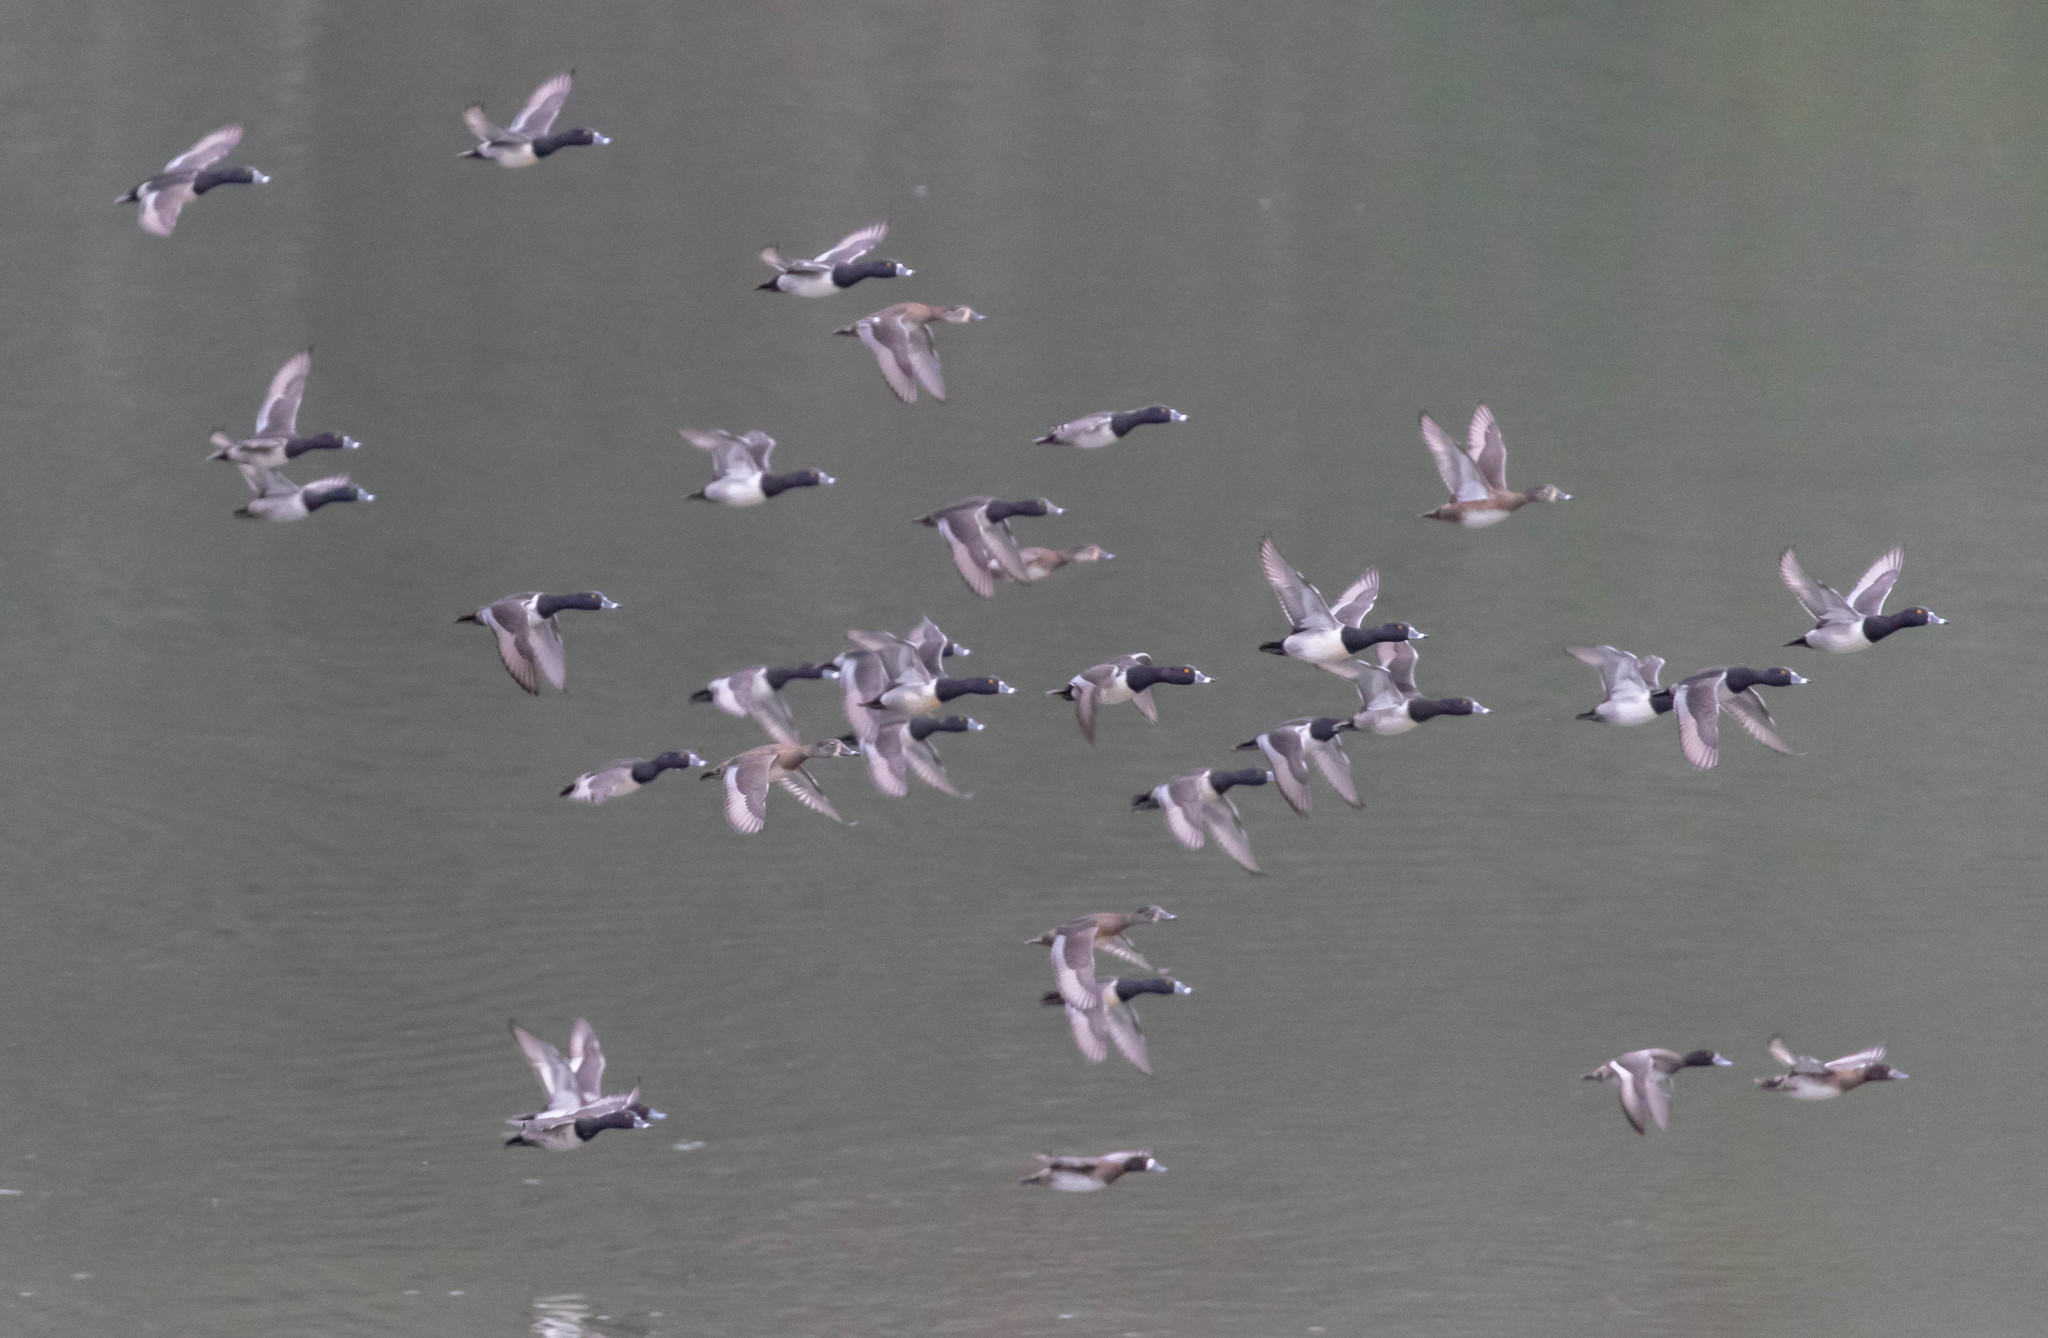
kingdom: Animalia
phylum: Chordata
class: Aves
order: Anseriformes
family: Anatidae
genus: Aythya
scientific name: Aythya collaris
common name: Ring-necked duck
